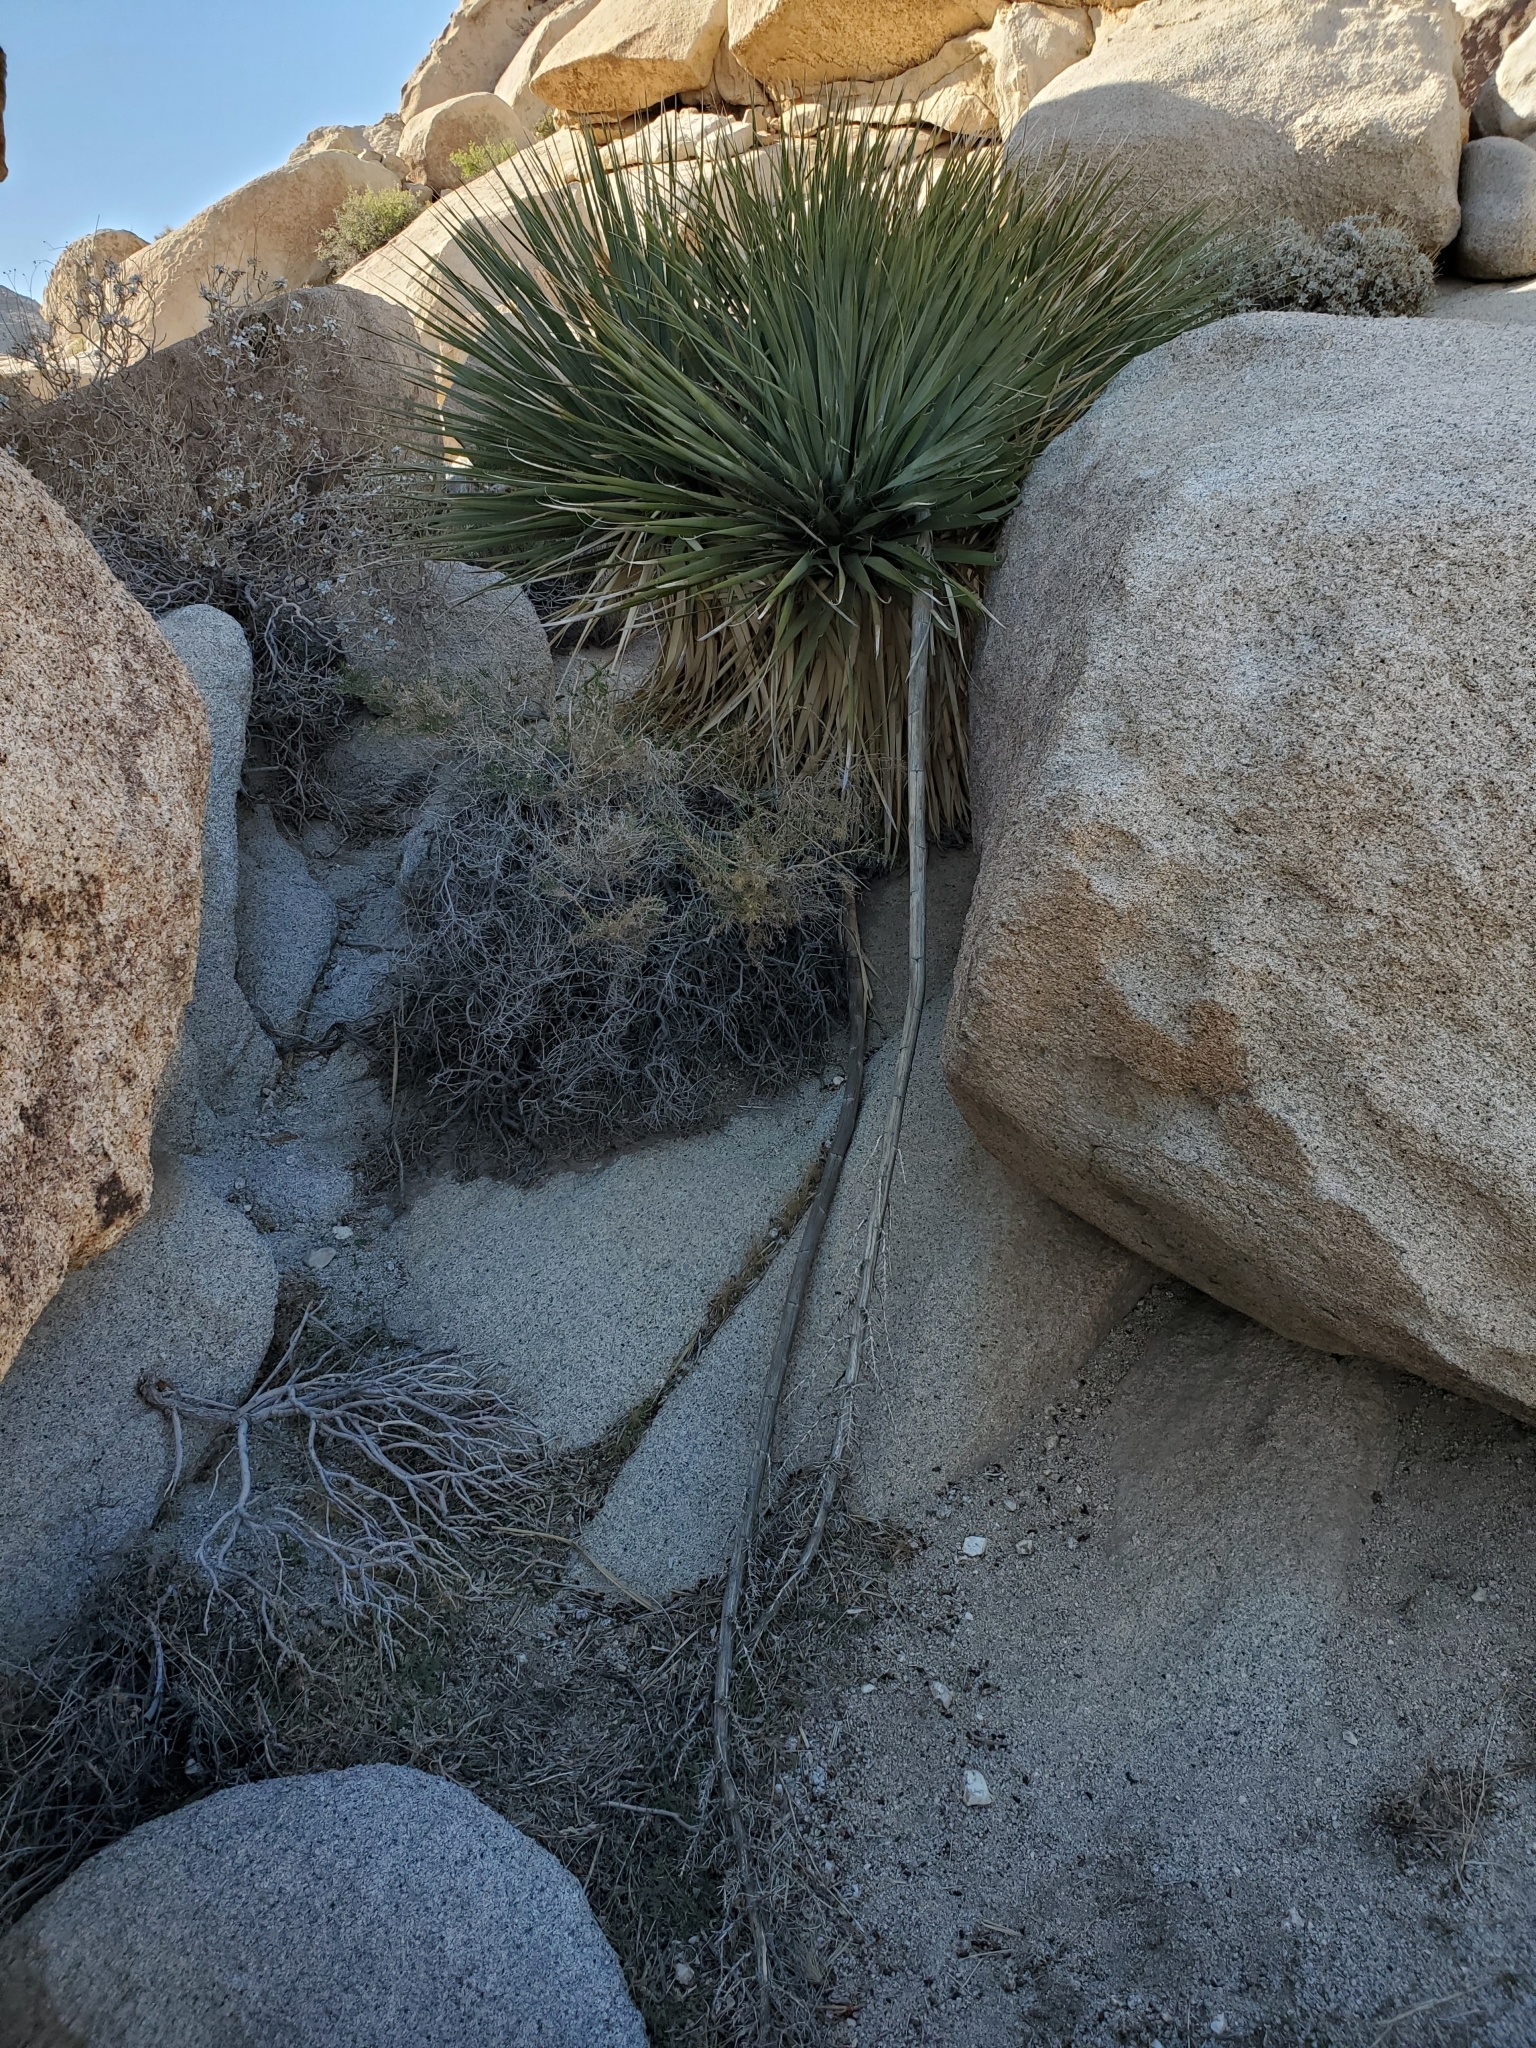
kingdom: Plantae
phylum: Tracheophyta
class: Liliopsida
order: Asparagales
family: Asparagaceae
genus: Nolina
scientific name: Nolina bigelovii
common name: Bigelow bear-grass
